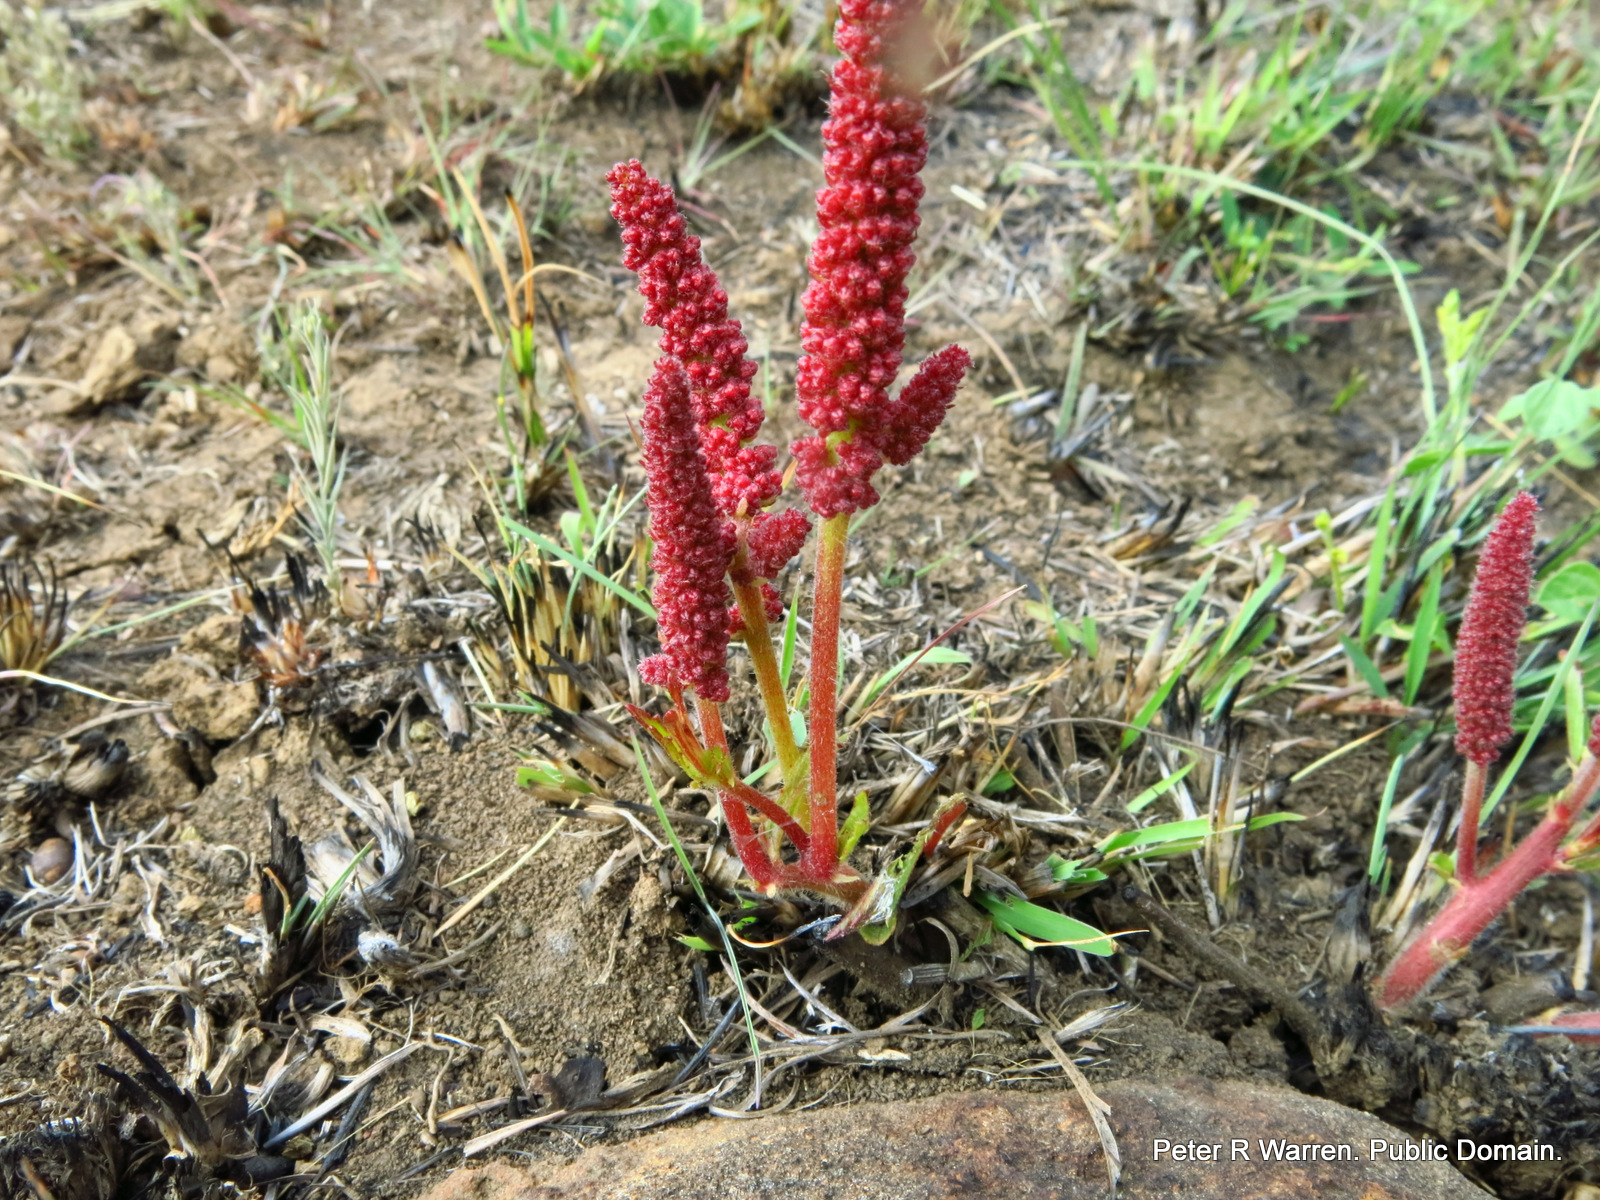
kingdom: Plantae
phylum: Tracheophyta
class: Magnoliopsida
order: Malpighiales
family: Euphorbiaceae
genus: Acalypha
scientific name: Acalypha punctata
